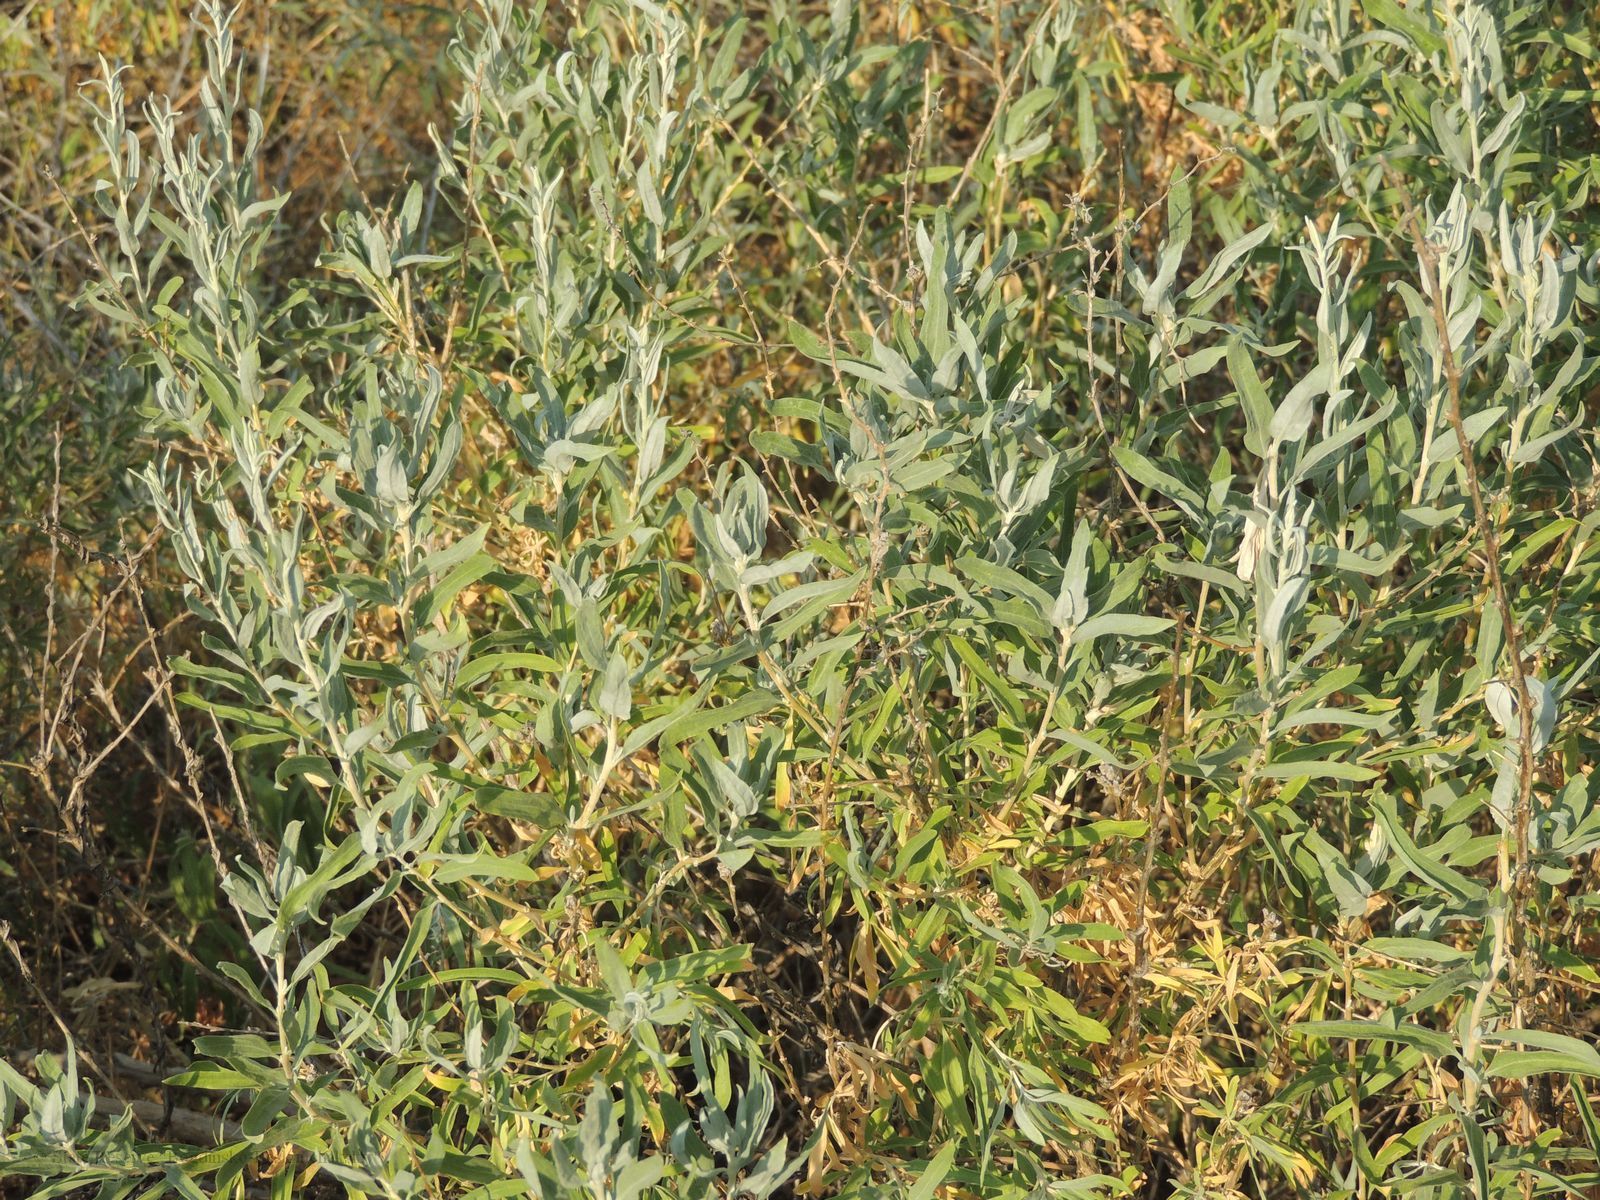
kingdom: Plantae
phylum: Tracheophyta
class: Magnoliopsida
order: Caryophyllales
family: Amaranthaceae
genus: Krascheninnikovia
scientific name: Krascheninnikovia ceratoides
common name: Pamirian winterfat
